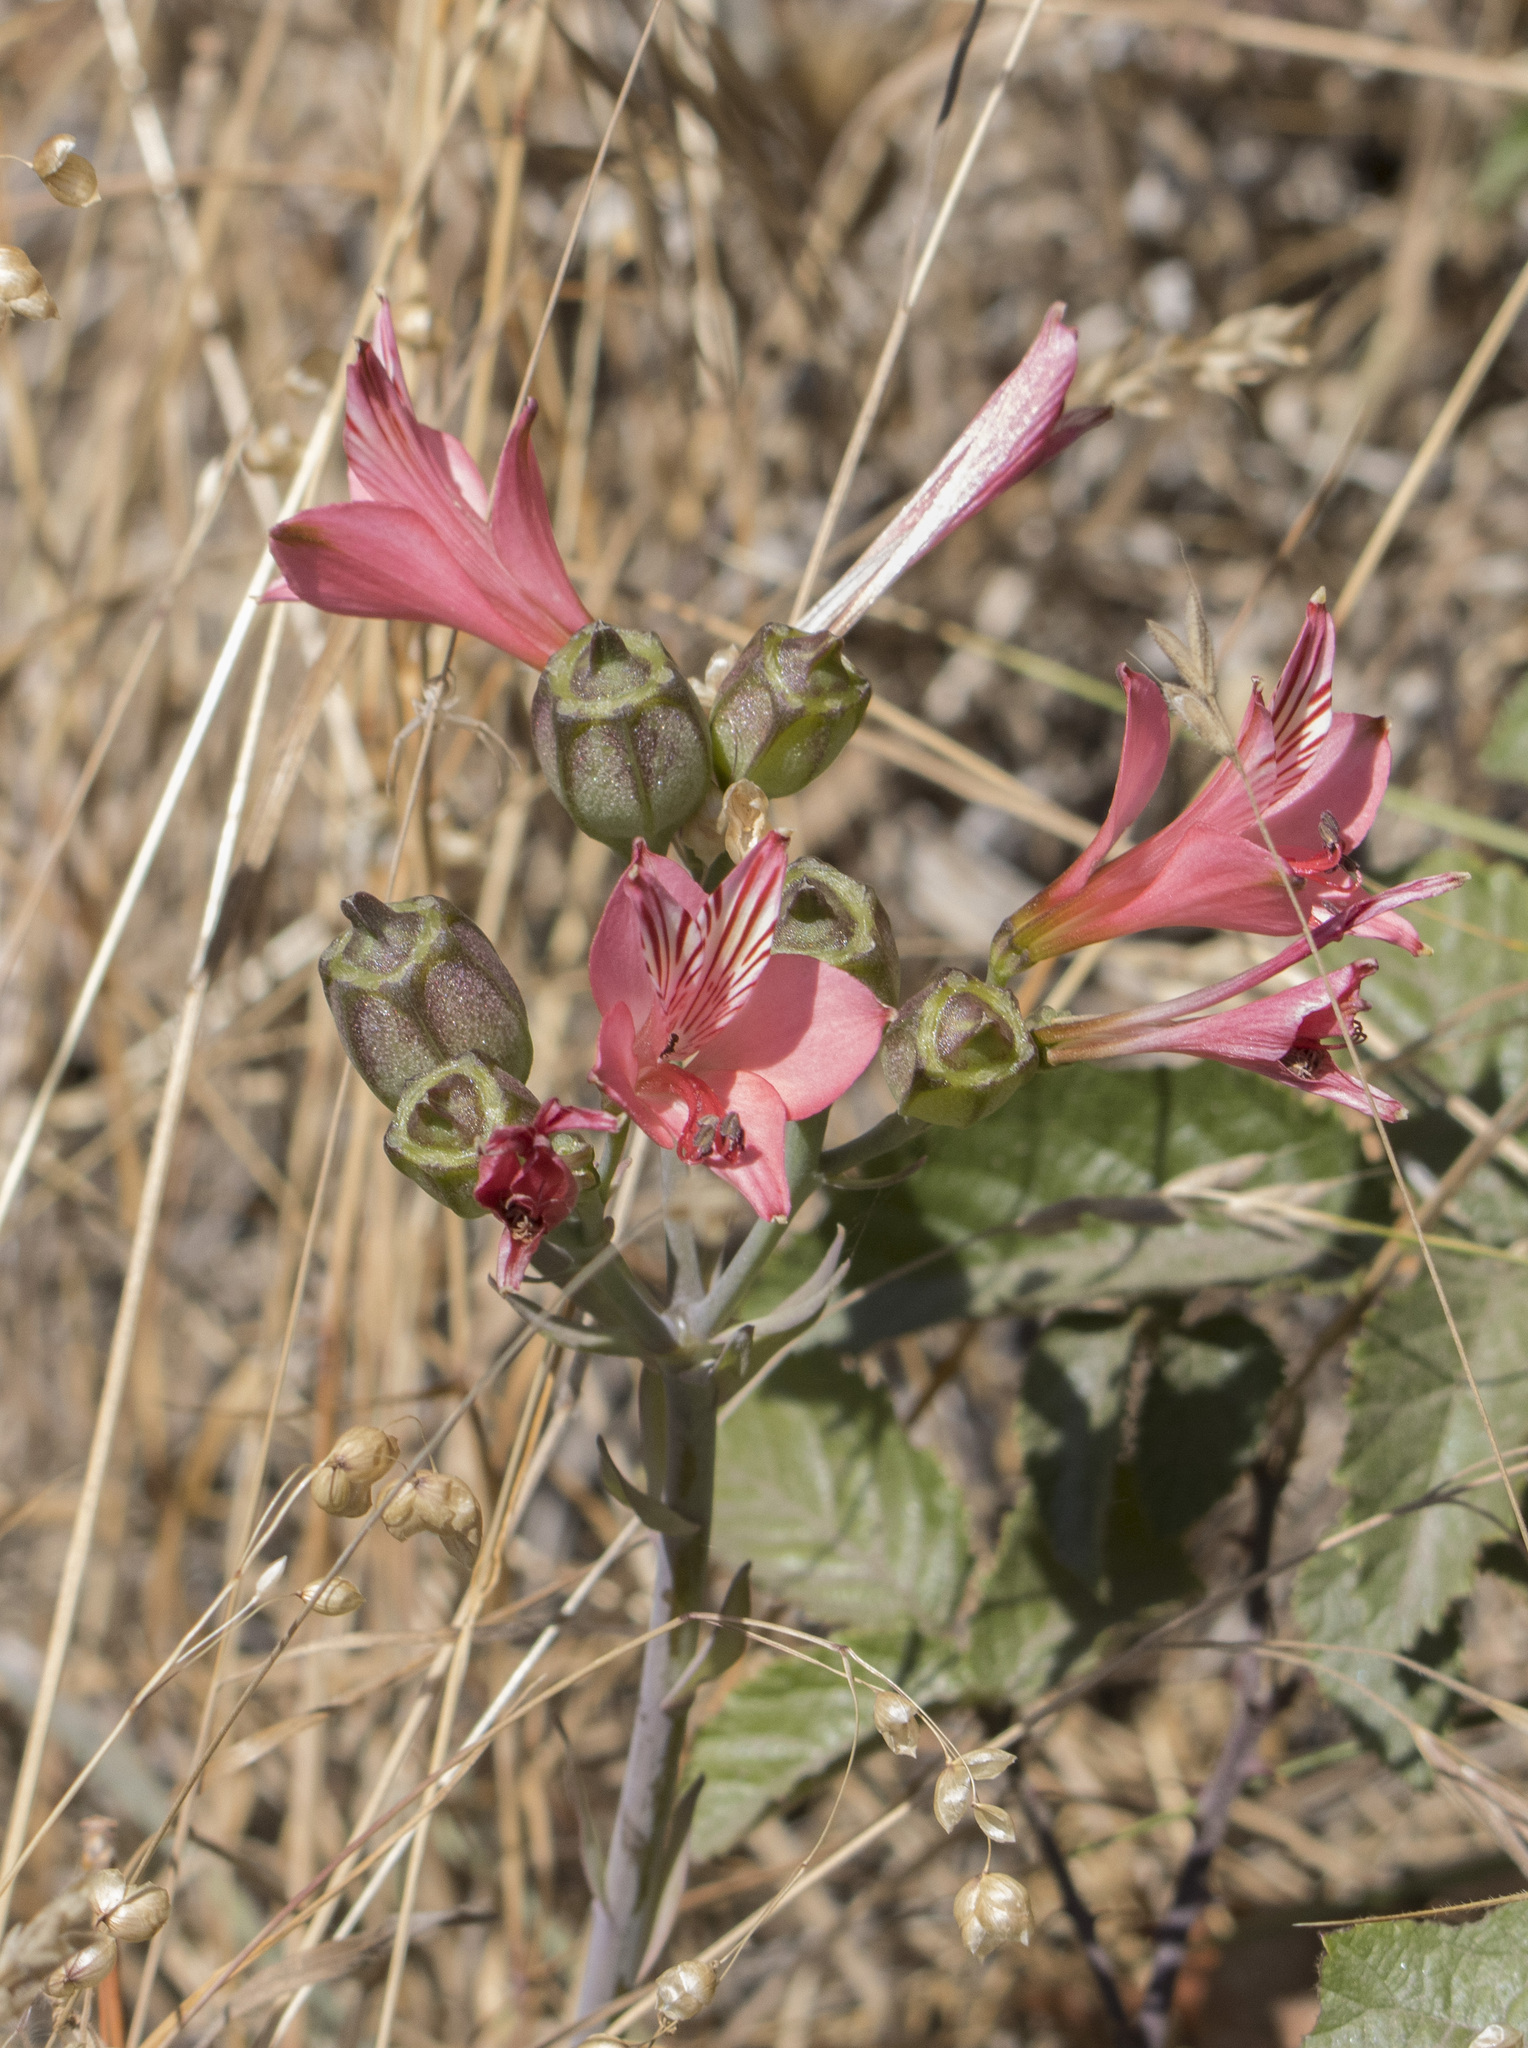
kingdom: Plantae
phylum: Tracheophyta
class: Liliopsida
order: Liliales
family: Alstroemeriaceae
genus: Alstroemeria
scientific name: Alstroemeria ligtu
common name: St. martin's-flower
